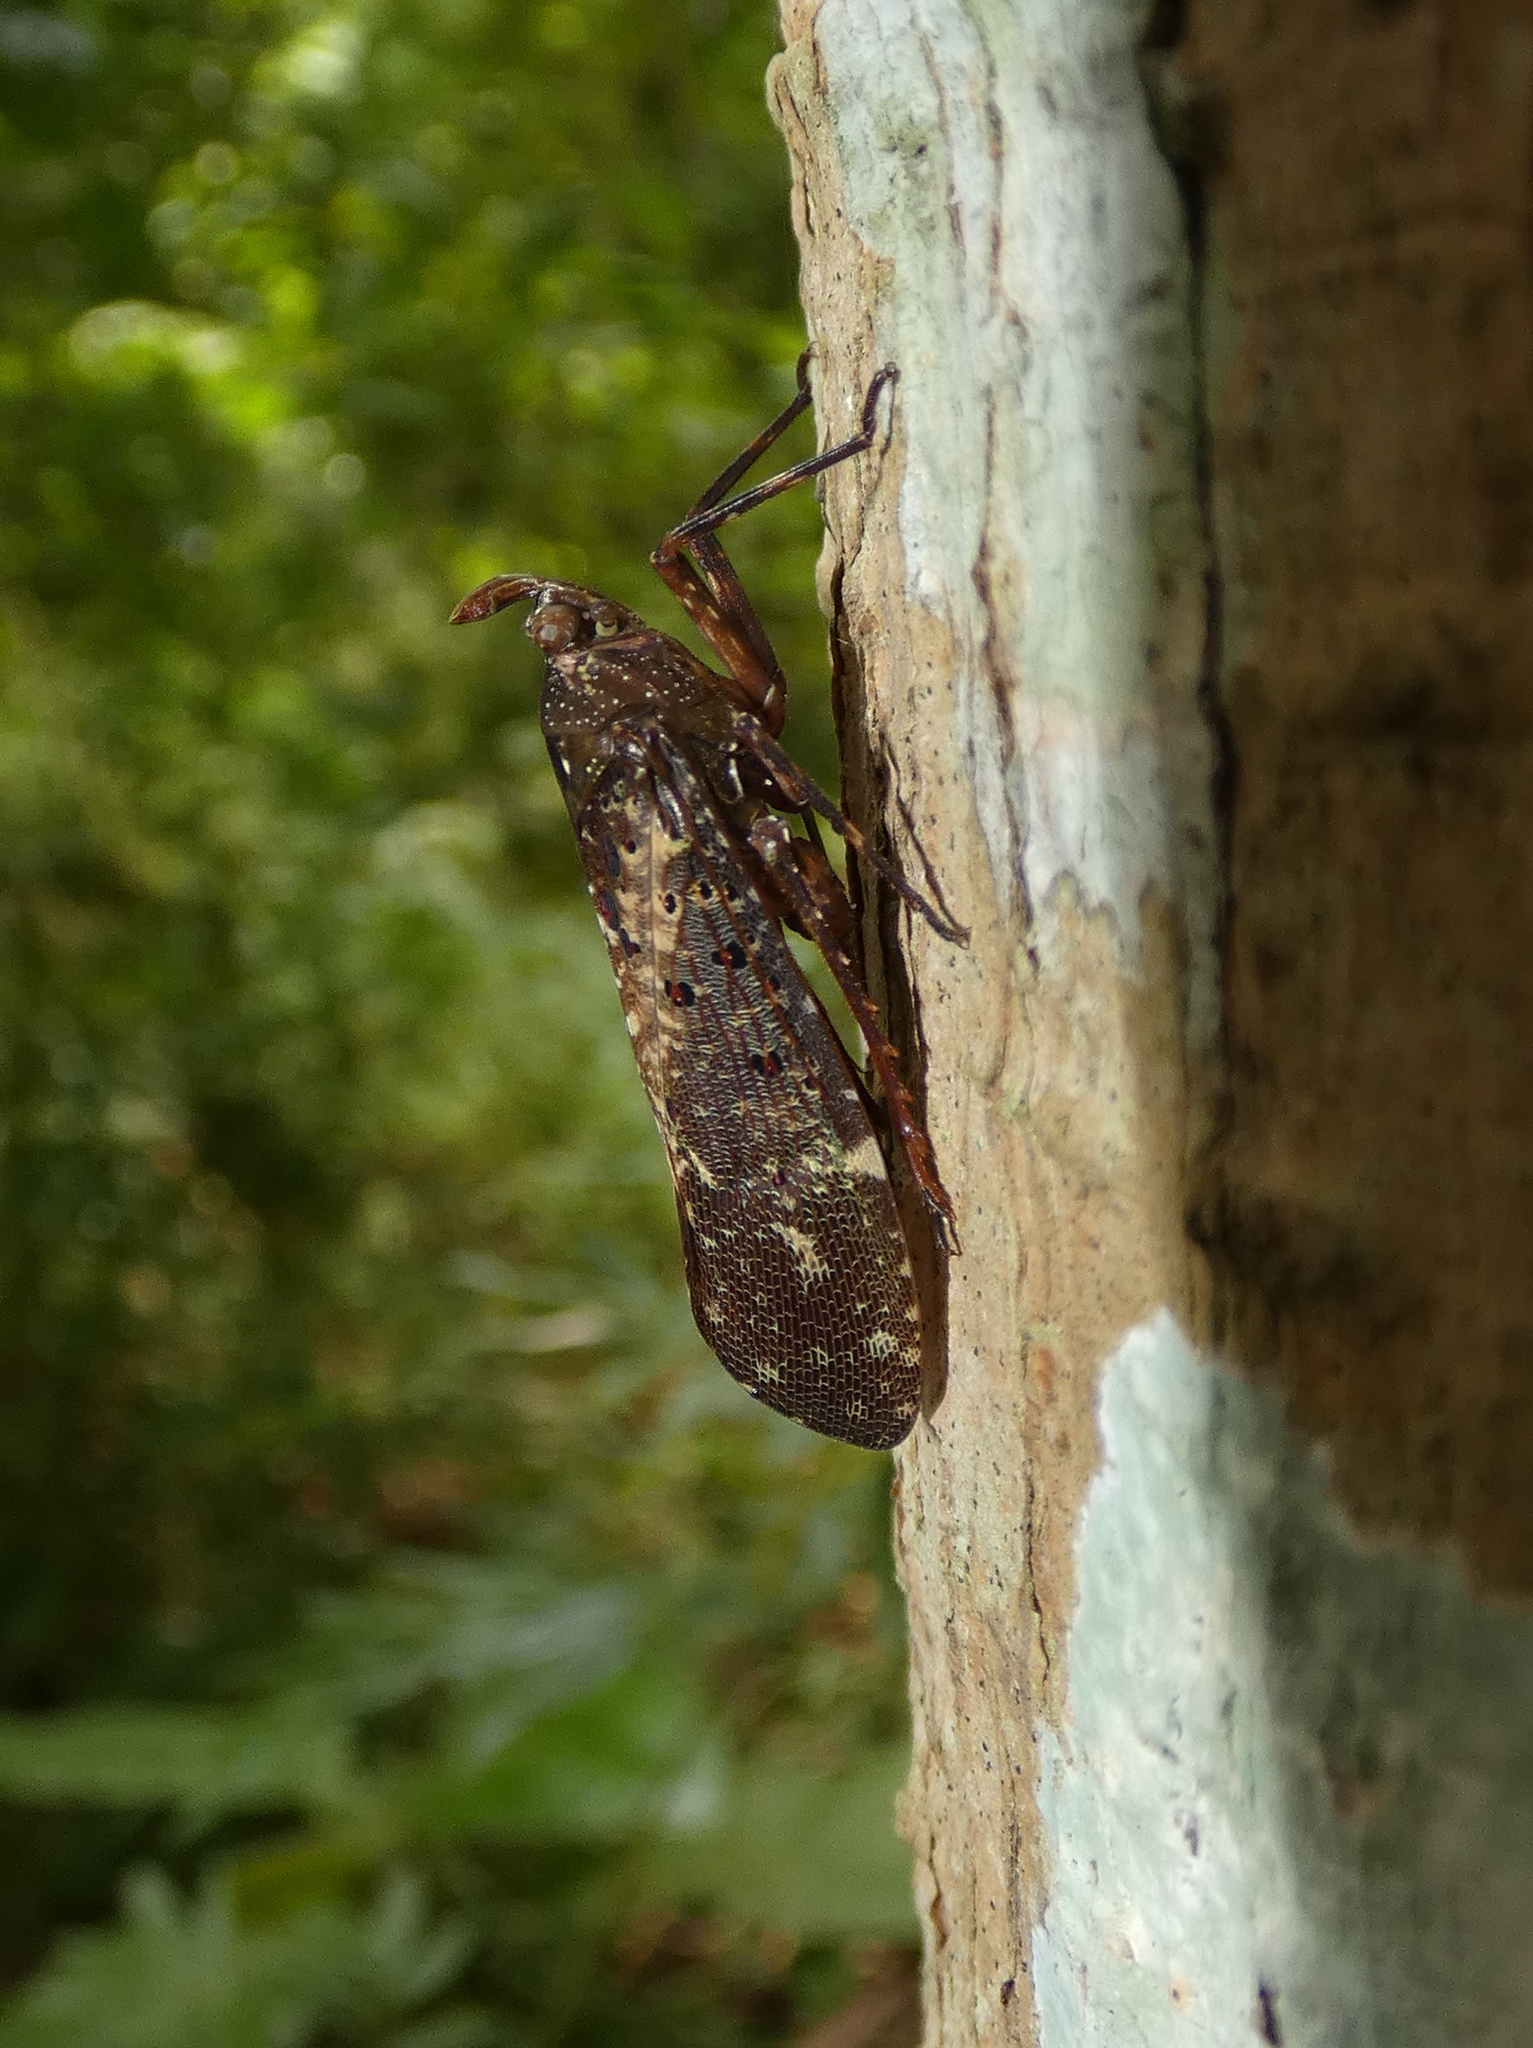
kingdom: Animalia
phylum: Arthropoda
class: Insecta
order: Hemiptera
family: Fulgoridae
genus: Copidocephala
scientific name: Copidocephala viridiguttata
